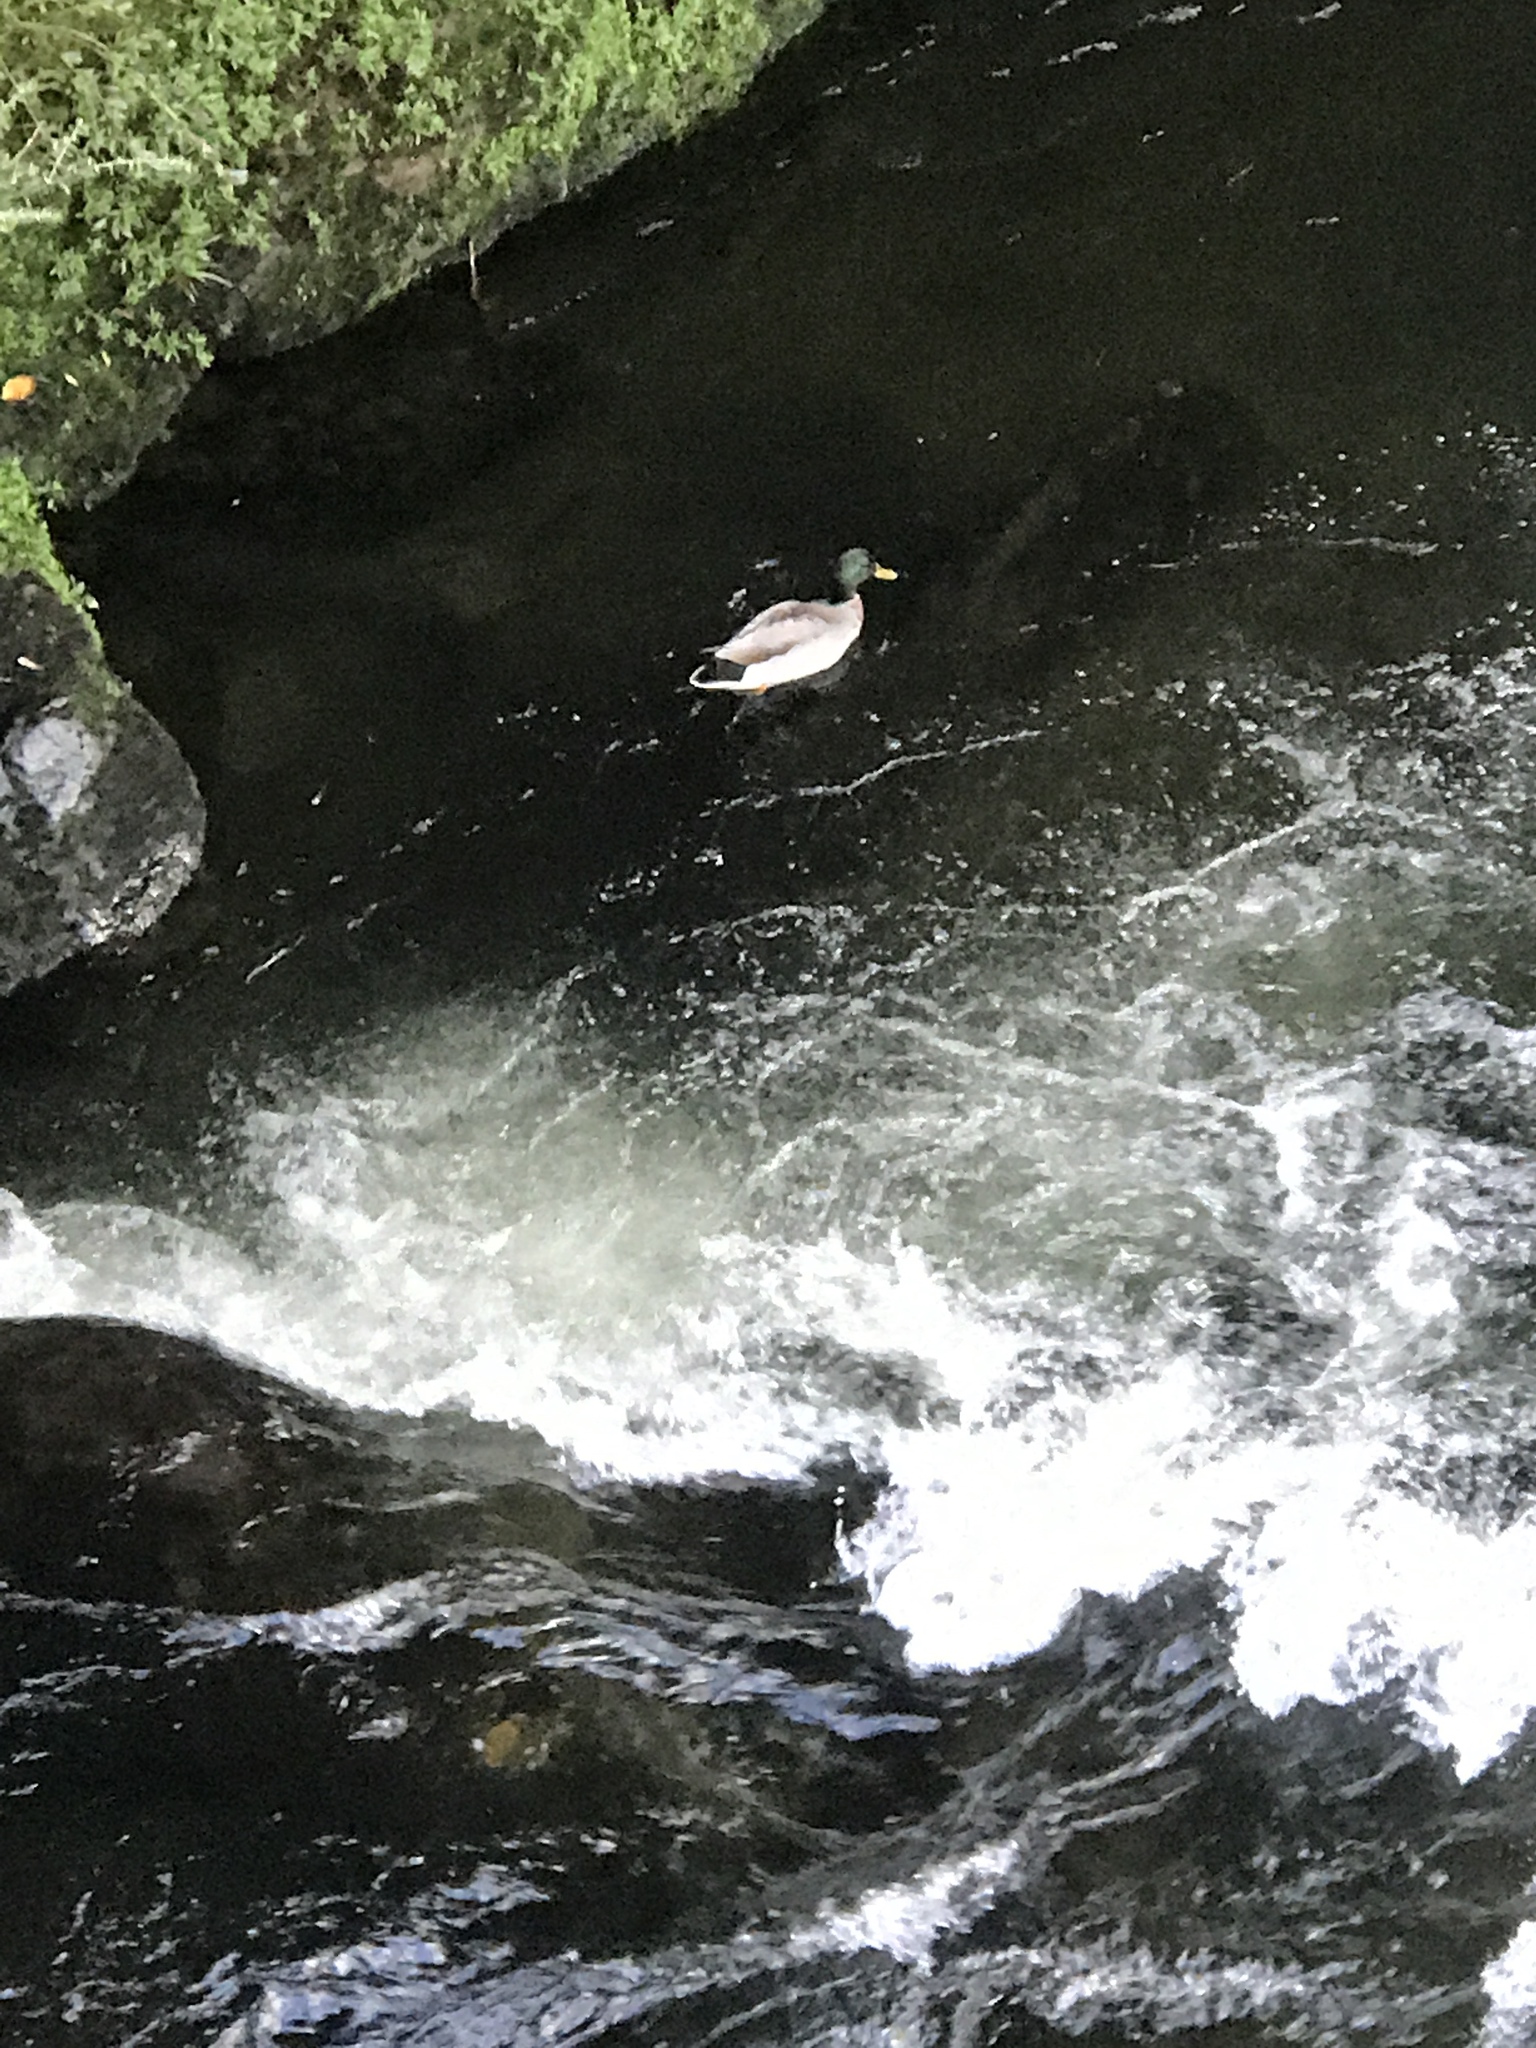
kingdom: Animalia
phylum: Chordata
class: Aves
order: Anseriformes
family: Anatidae
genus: Anas
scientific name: Anas platyrhynchos
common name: Mallard
